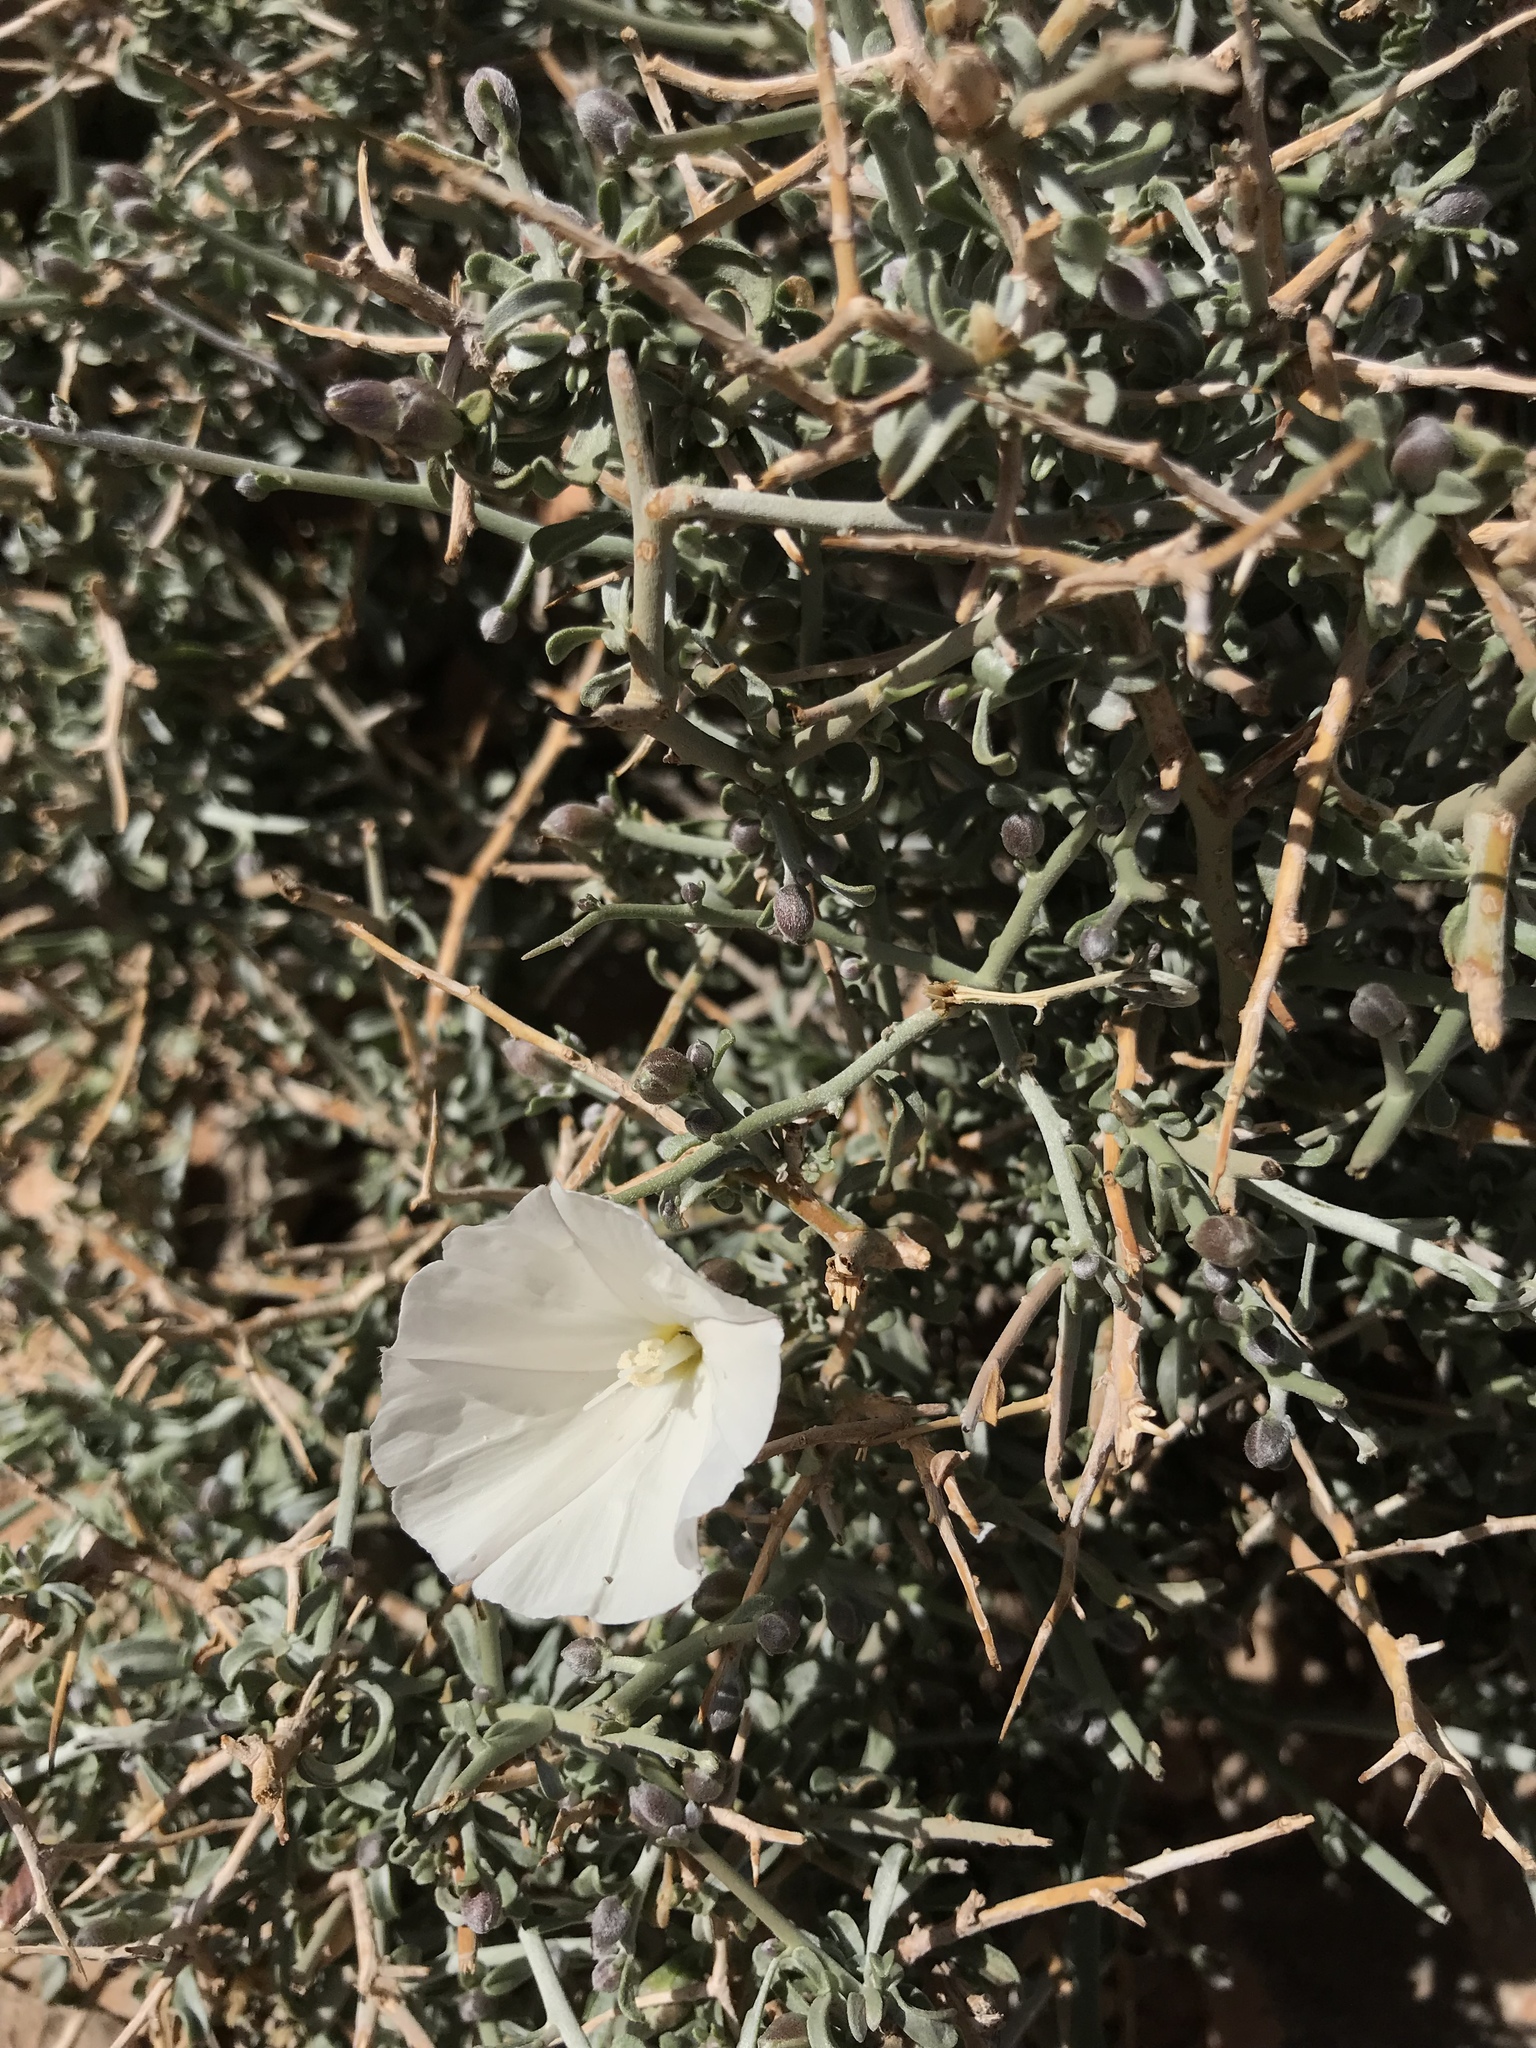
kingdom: Plantae
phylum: Tracheophyta
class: Magnoliopsida
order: Solanales
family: Convolvulaceae
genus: Convolvulus
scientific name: Convolvulus trabutianus
